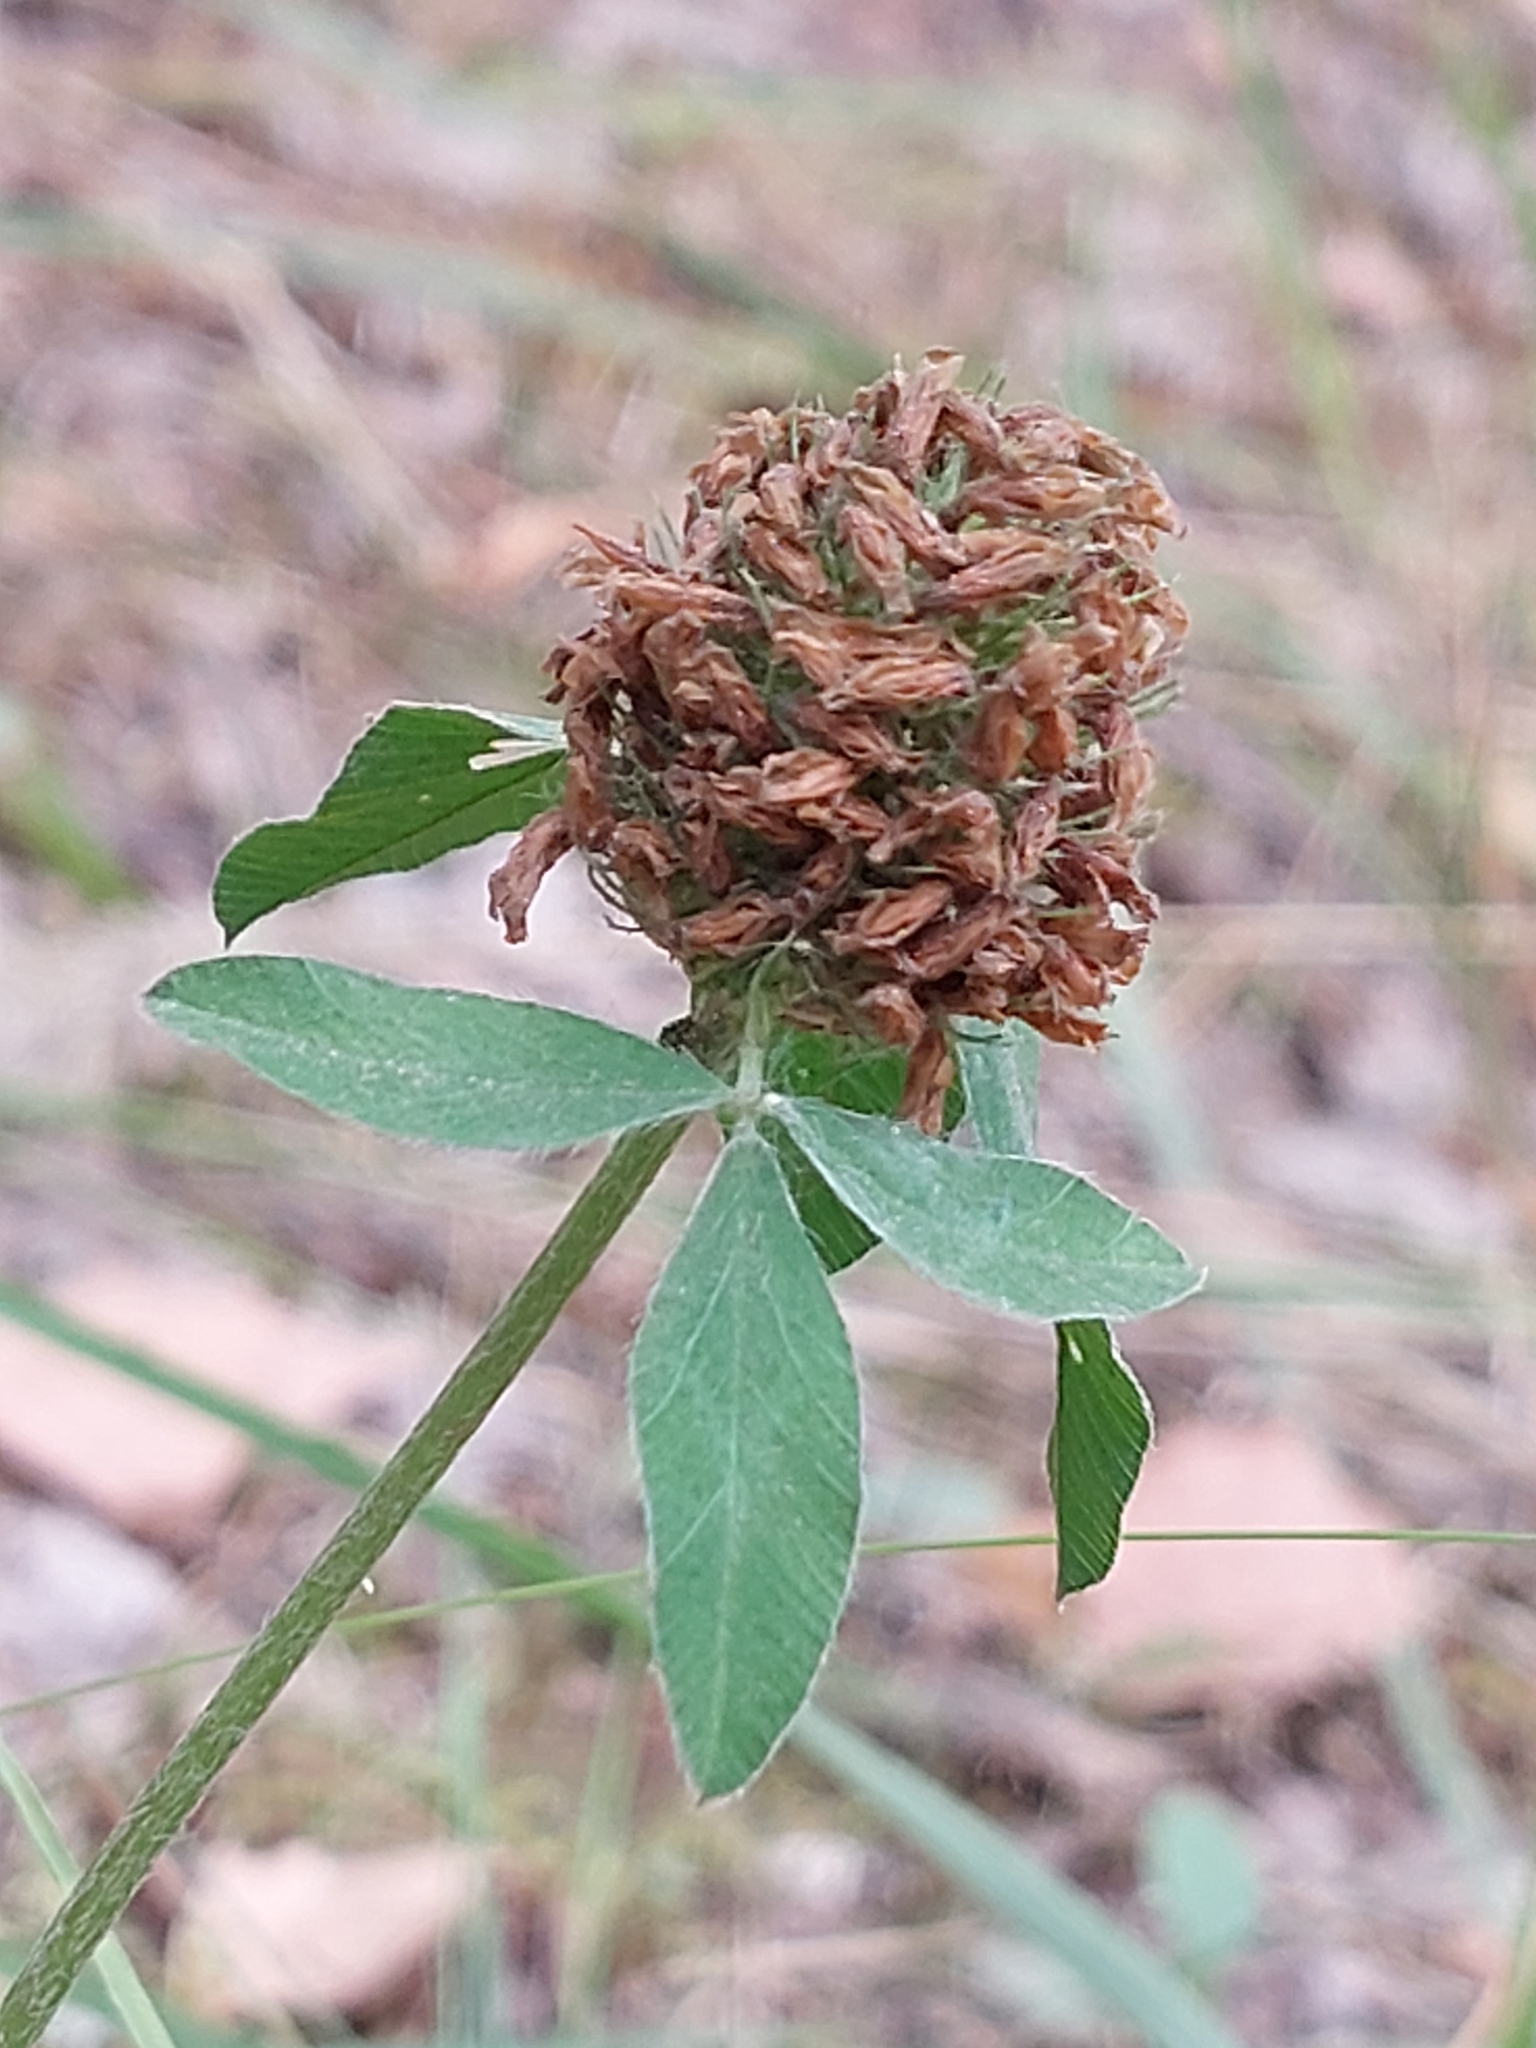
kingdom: Plantae
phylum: Tracheophyta
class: Magnoliopsida
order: Fabales
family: Fabaceae
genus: Trifolium
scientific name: Trifolium pratense
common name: Red clover
